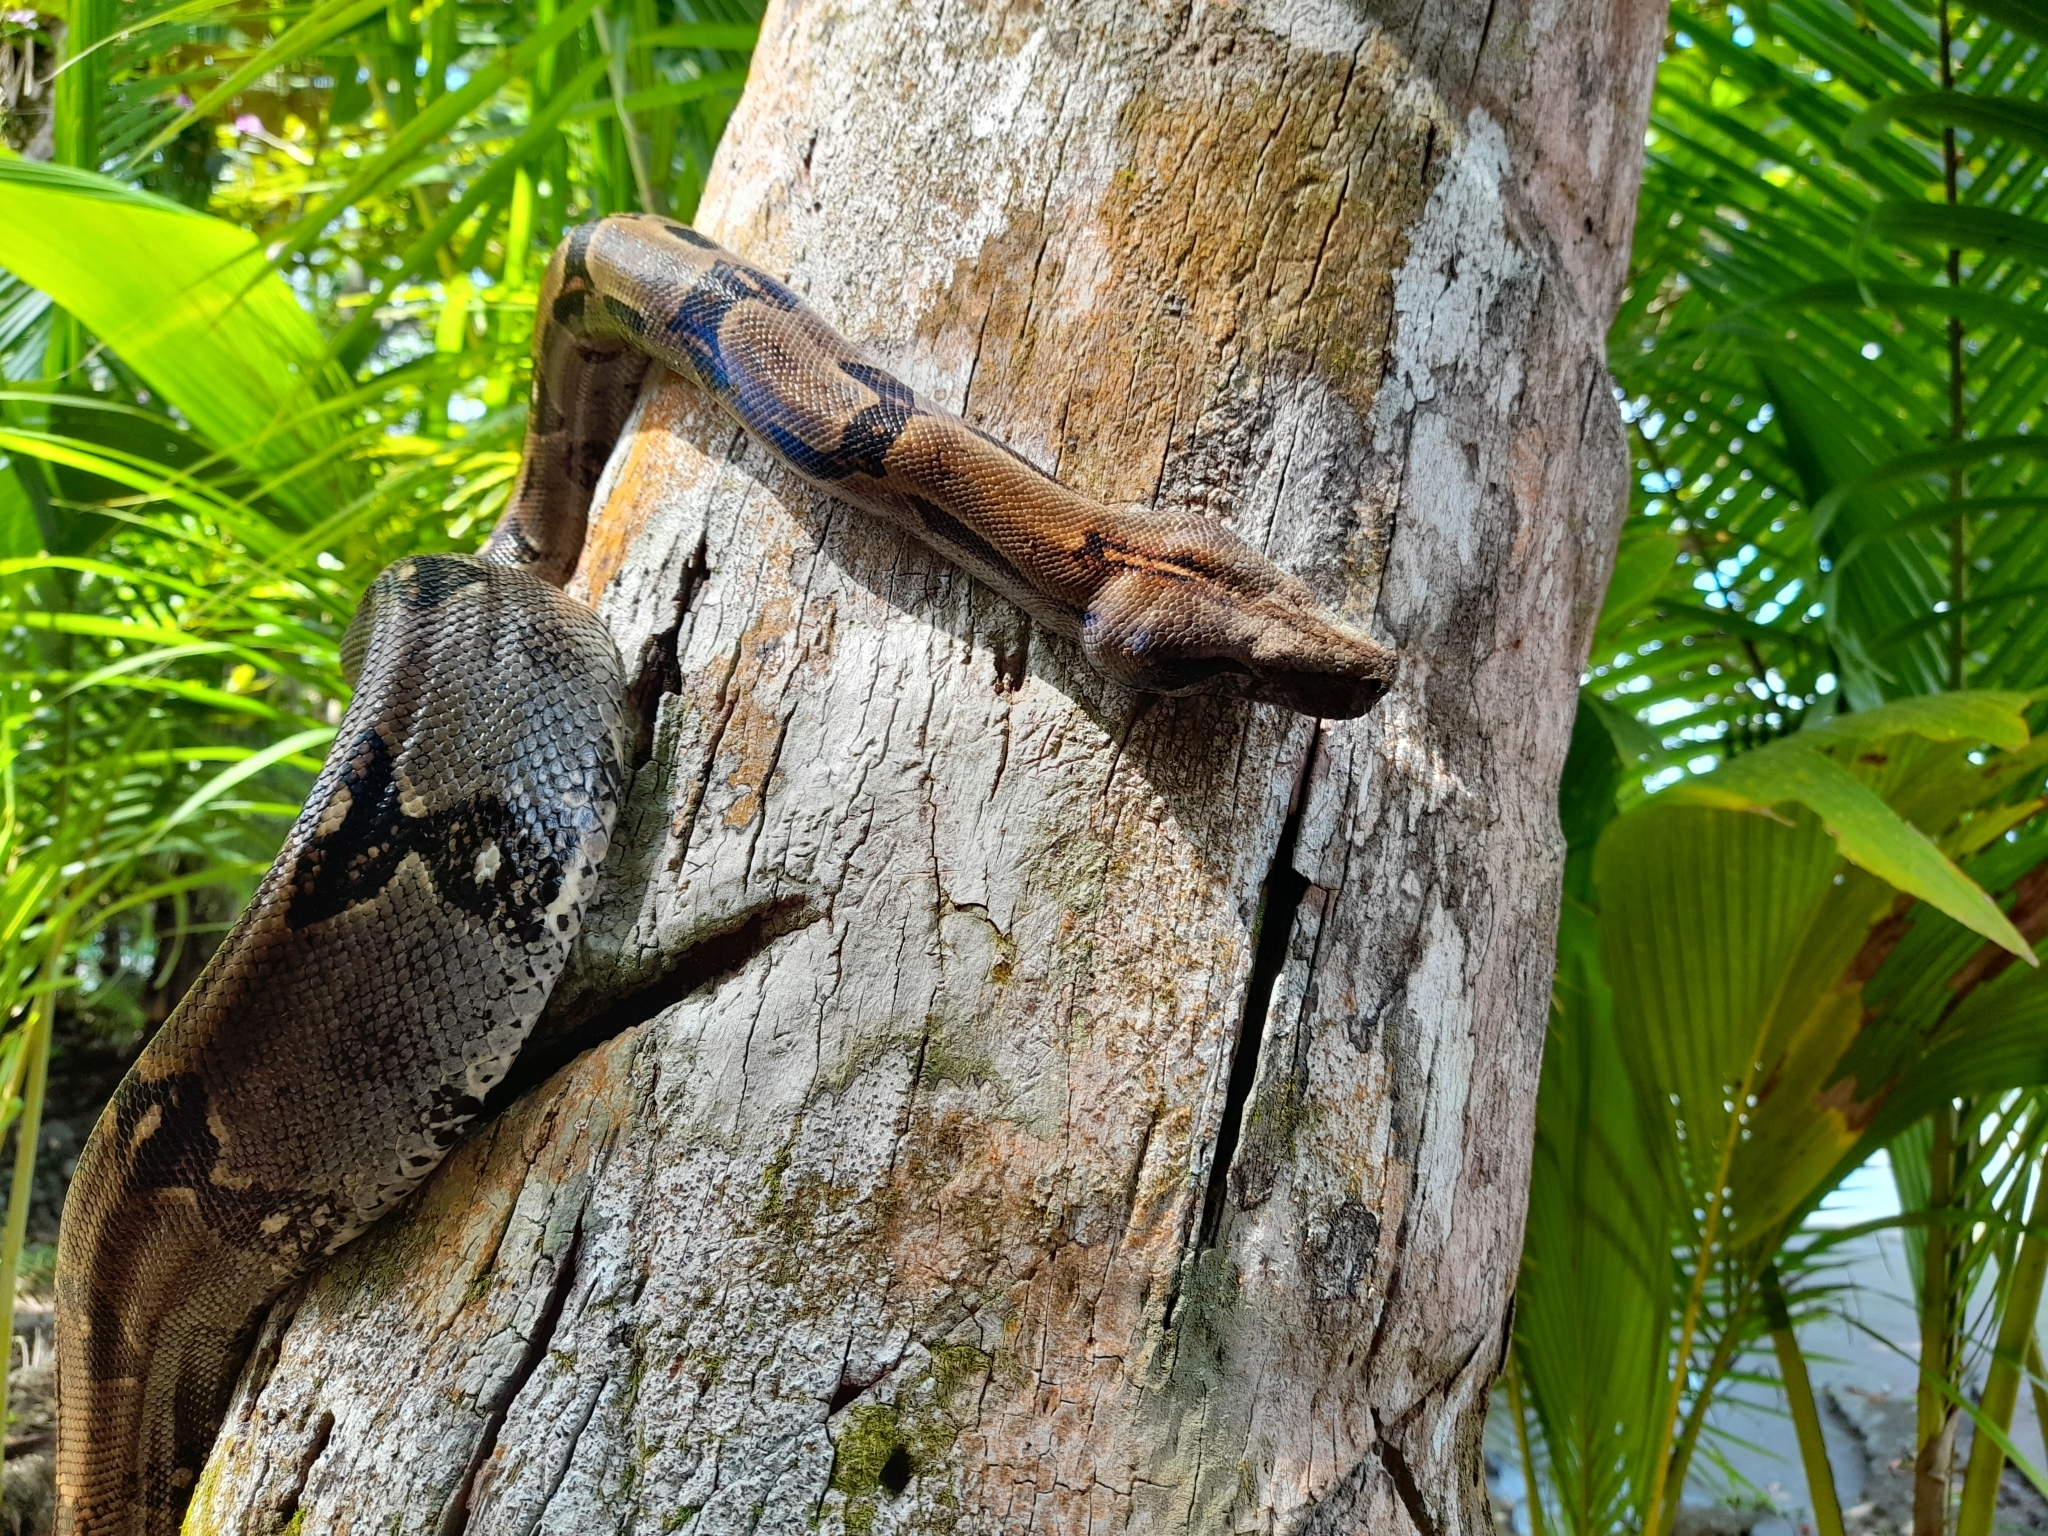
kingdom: Animalia
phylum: Chordata
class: Squamata
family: Boidae
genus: Boa
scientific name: Boa imperator
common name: Central american boa
